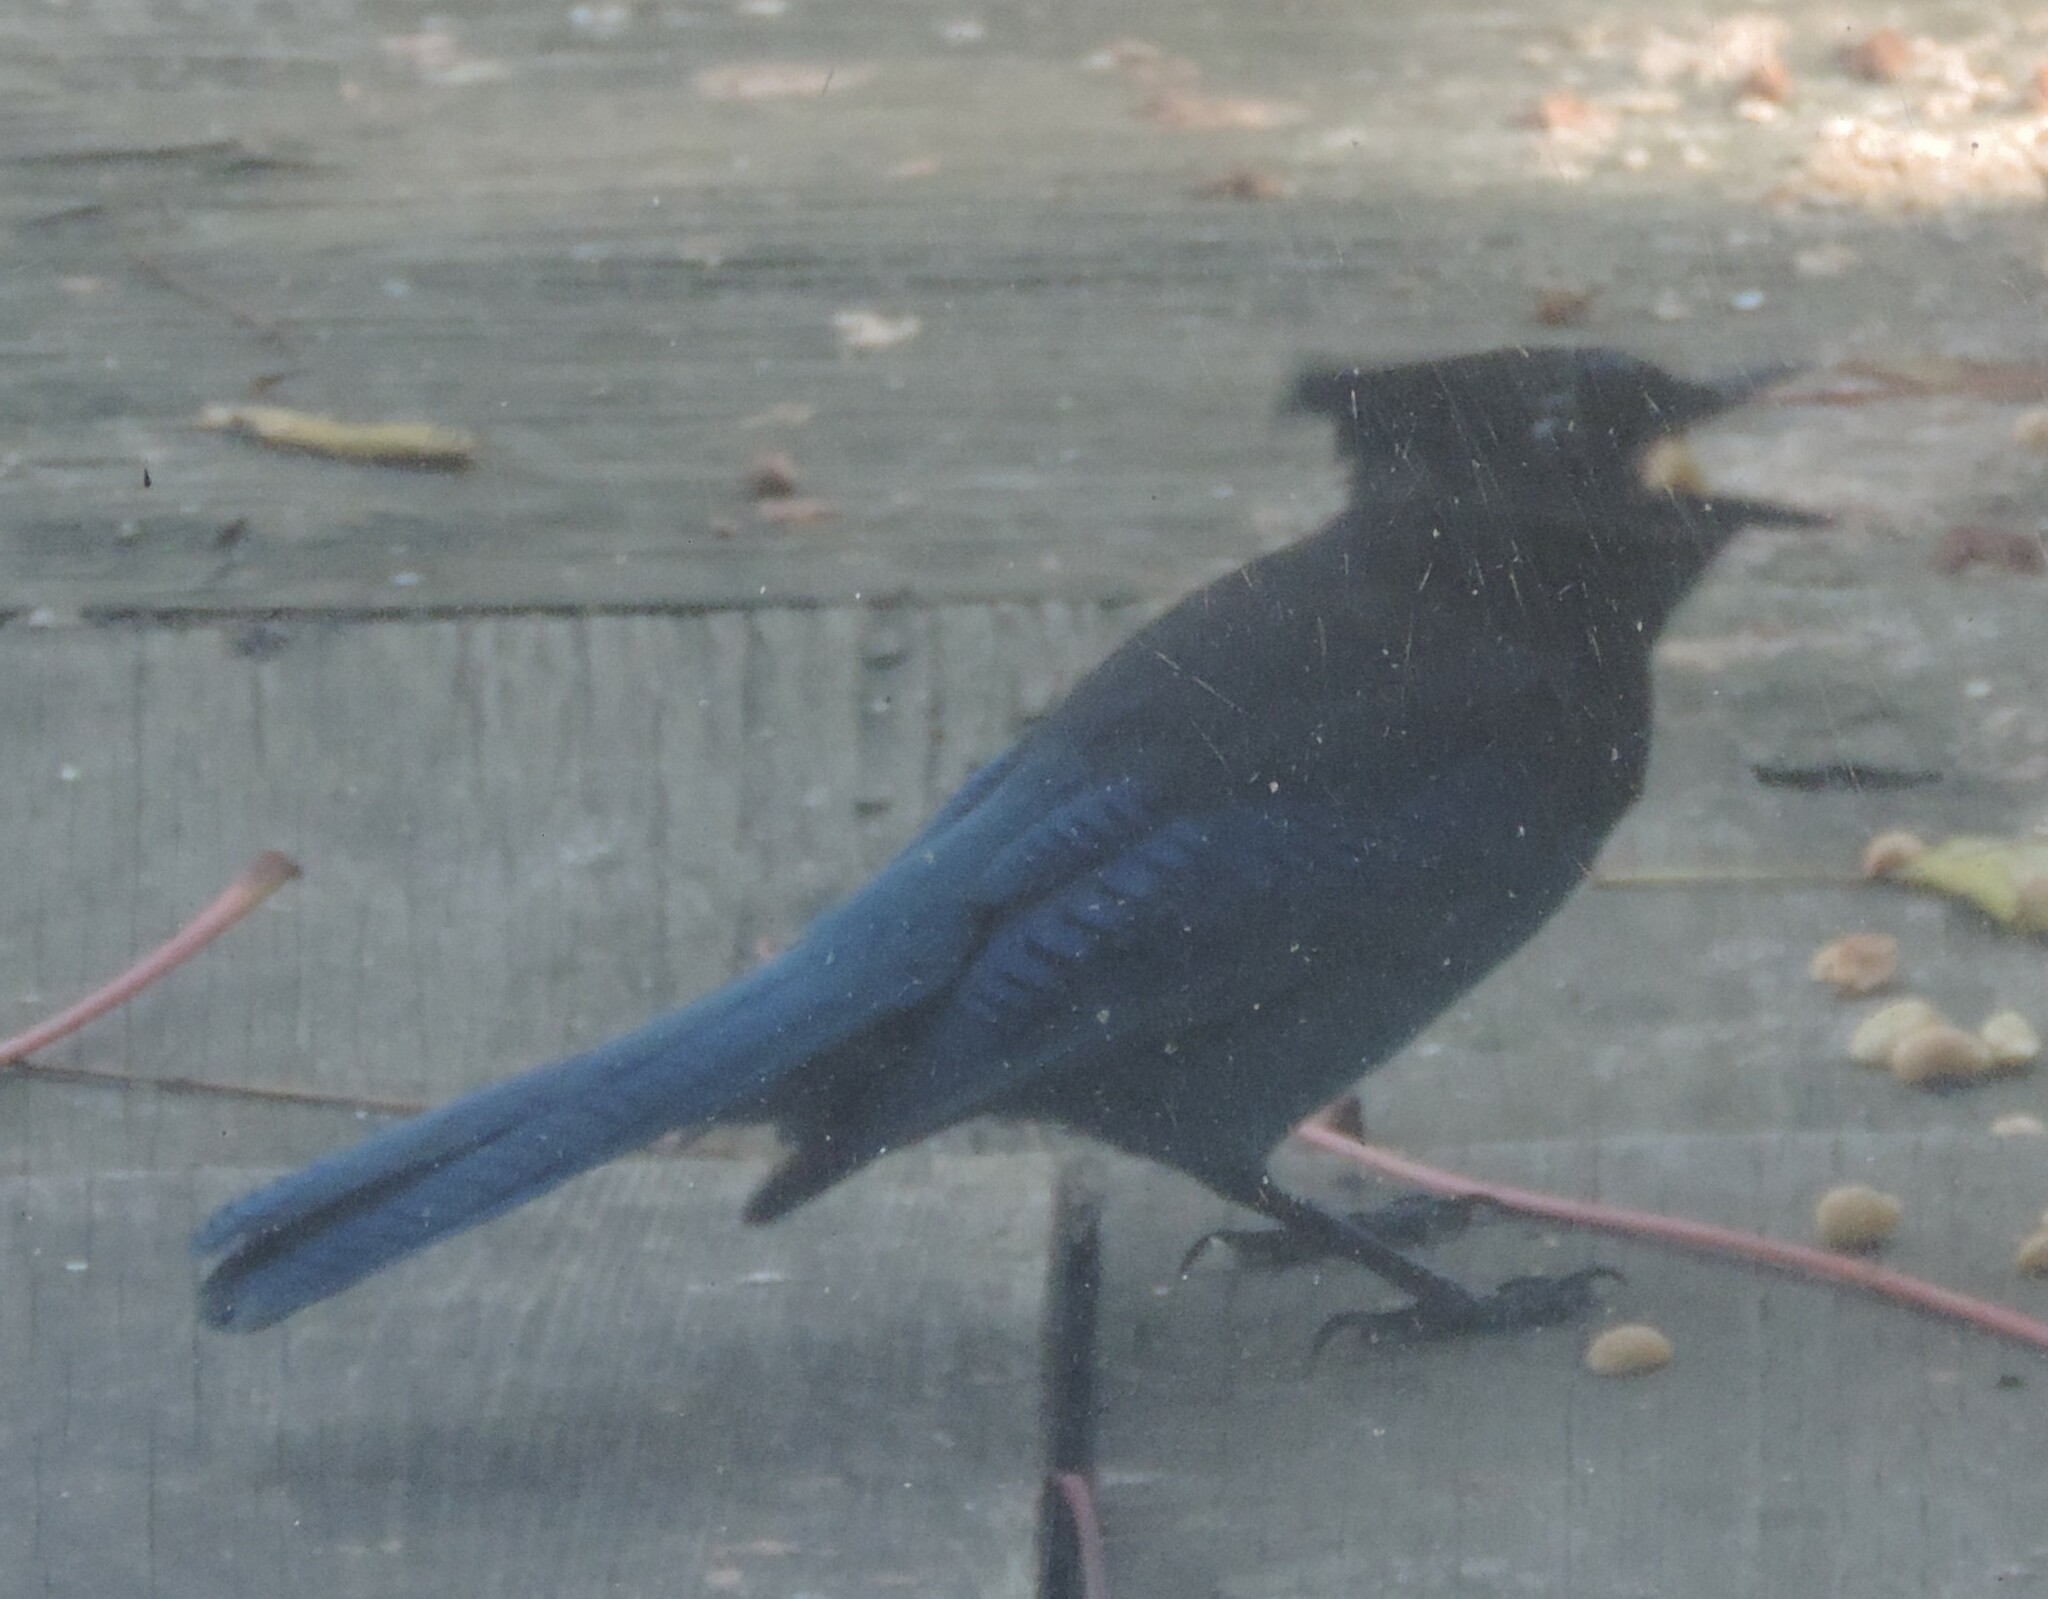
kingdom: Animalia
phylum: Chordata
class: Aves
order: Passeriformes
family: Corvidae
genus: Cyanocitta
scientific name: Cyanocitta stelleri
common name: Steller's jay
